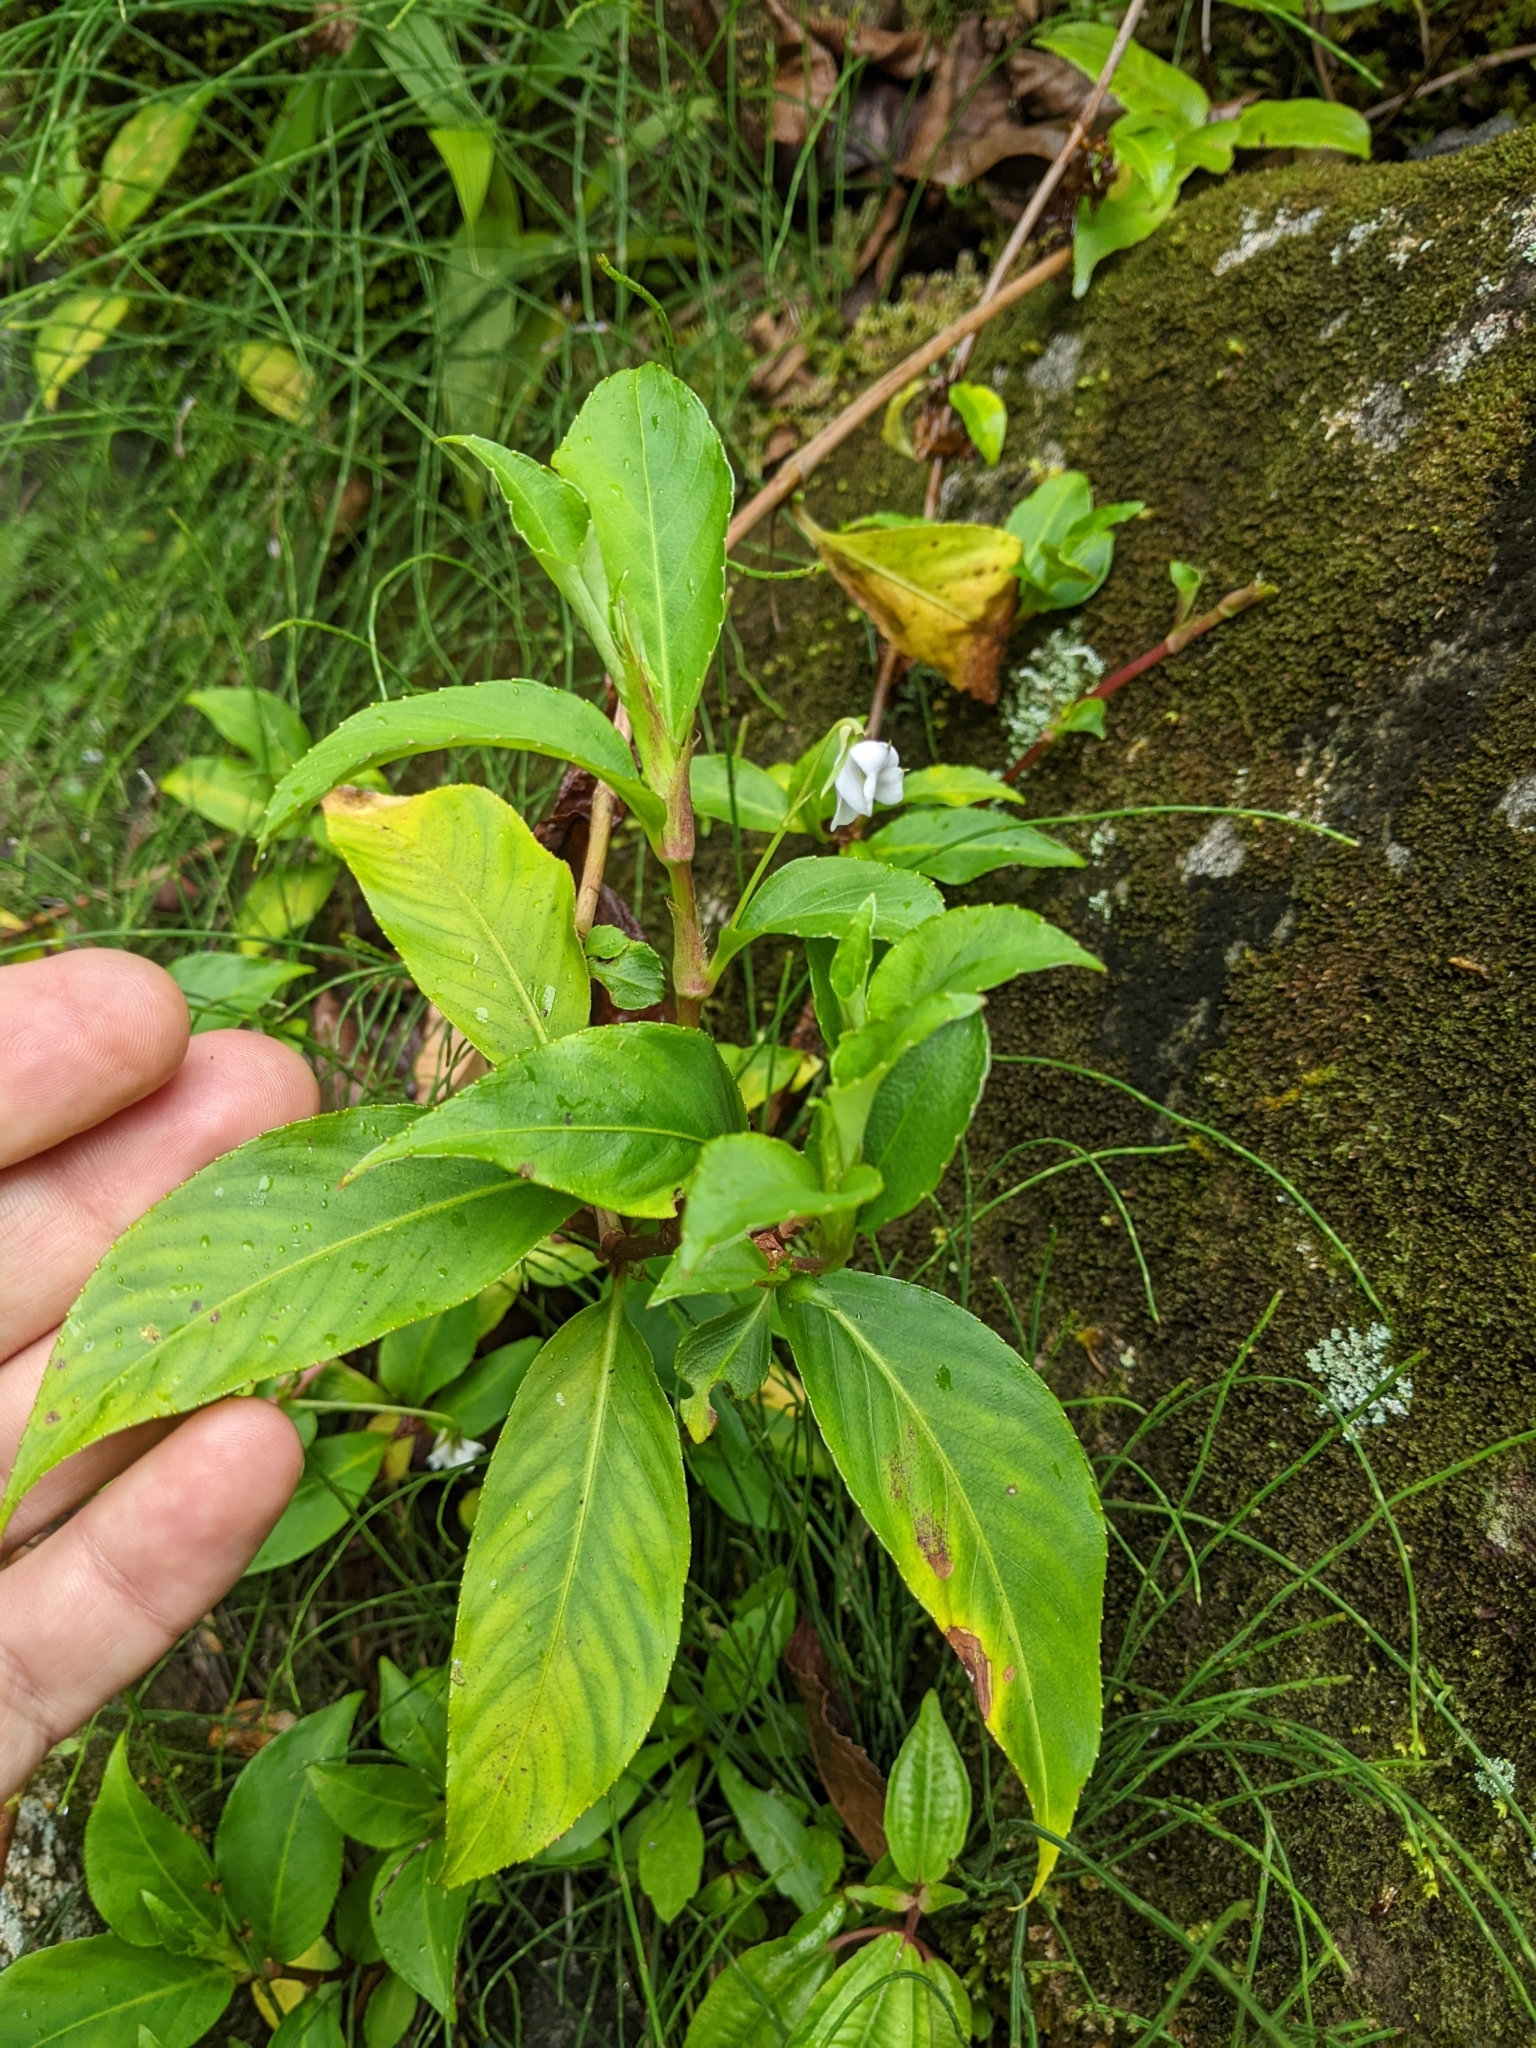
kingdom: Plantae
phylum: Tracheophyta
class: Magnoliopsida
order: Malpighiales
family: Violaceae
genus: Viola
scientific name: Viola stipularis
